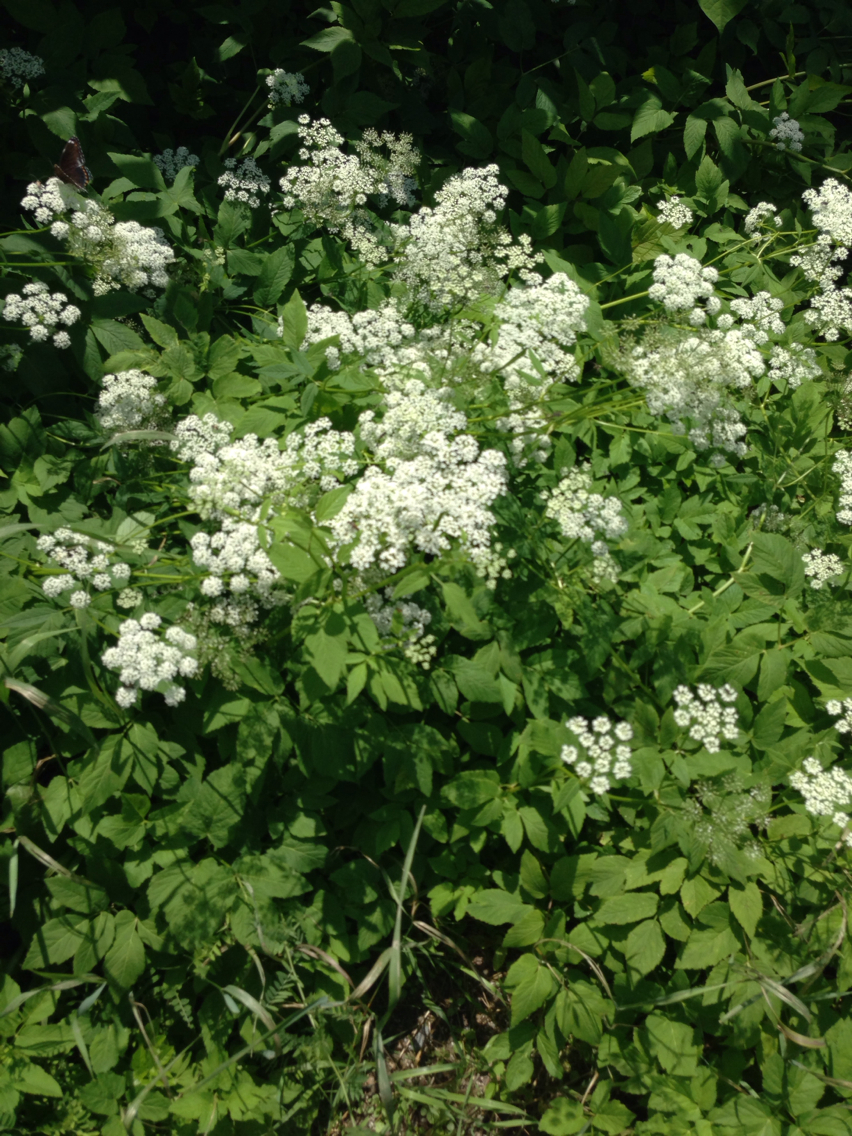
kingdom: Plantae
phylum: Tracheophyta
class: Magnoliopsida
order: Apiales
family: Apiaceae
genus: Aegopodium
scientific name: Aegopodium podagraria
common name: Ground-elder
